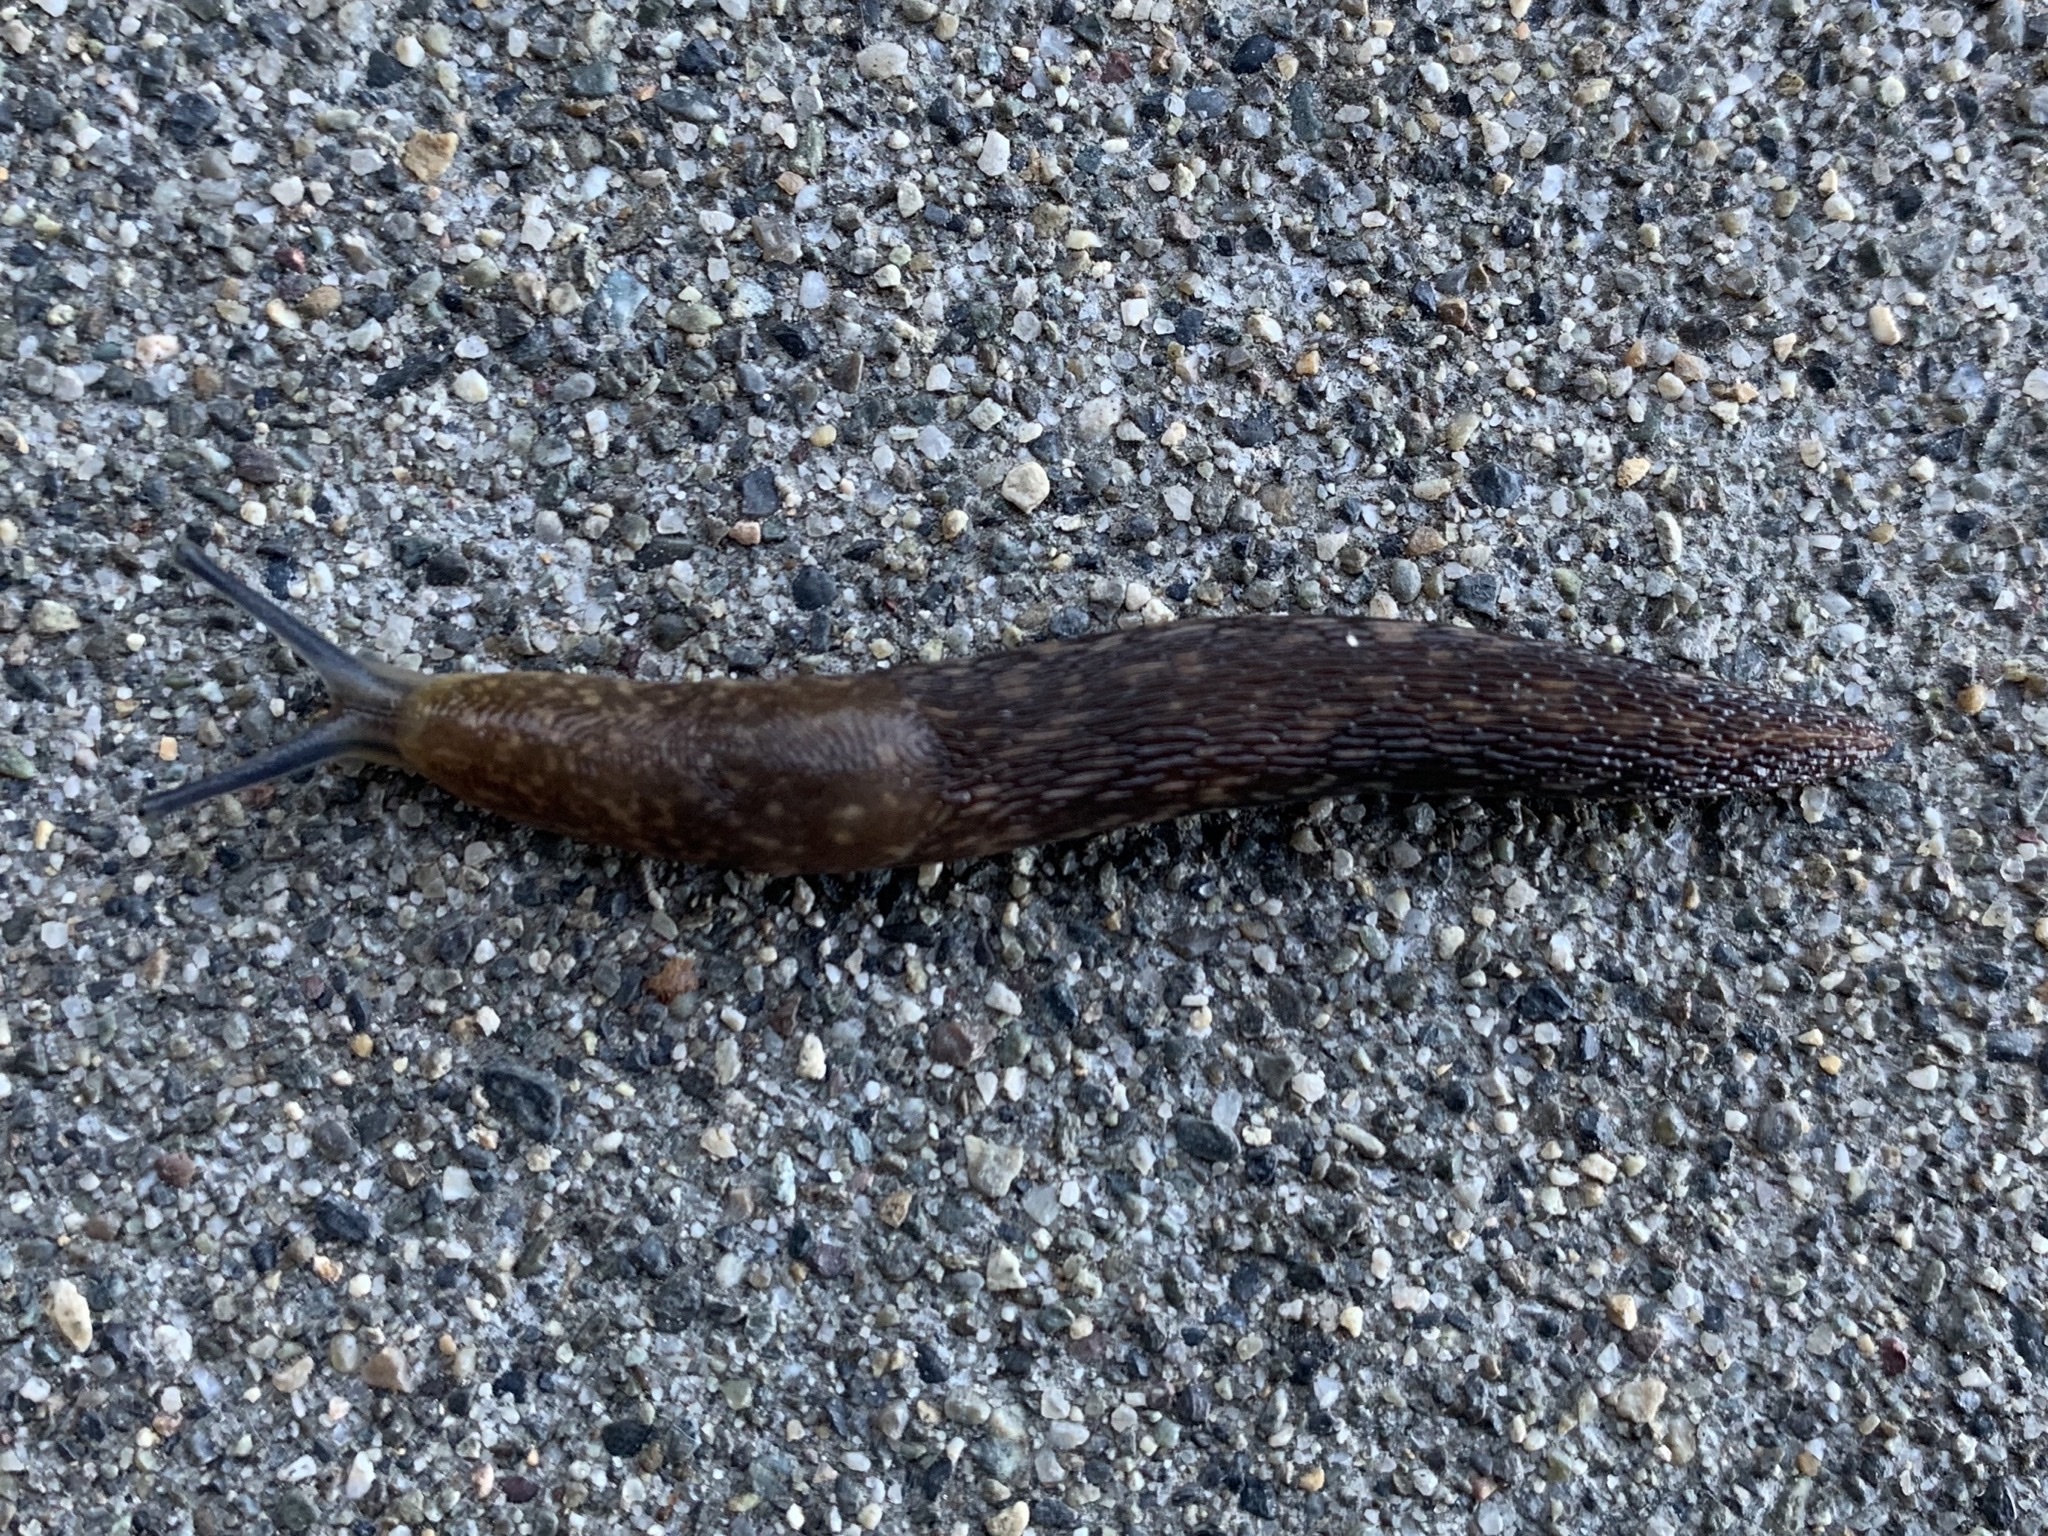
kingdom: Animalia
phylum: Mollusca
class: Gastropoda
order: Stylommatophora
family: Limacidae
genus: Limacus
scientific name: Limacus flavus
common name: Yellow gardenslug
